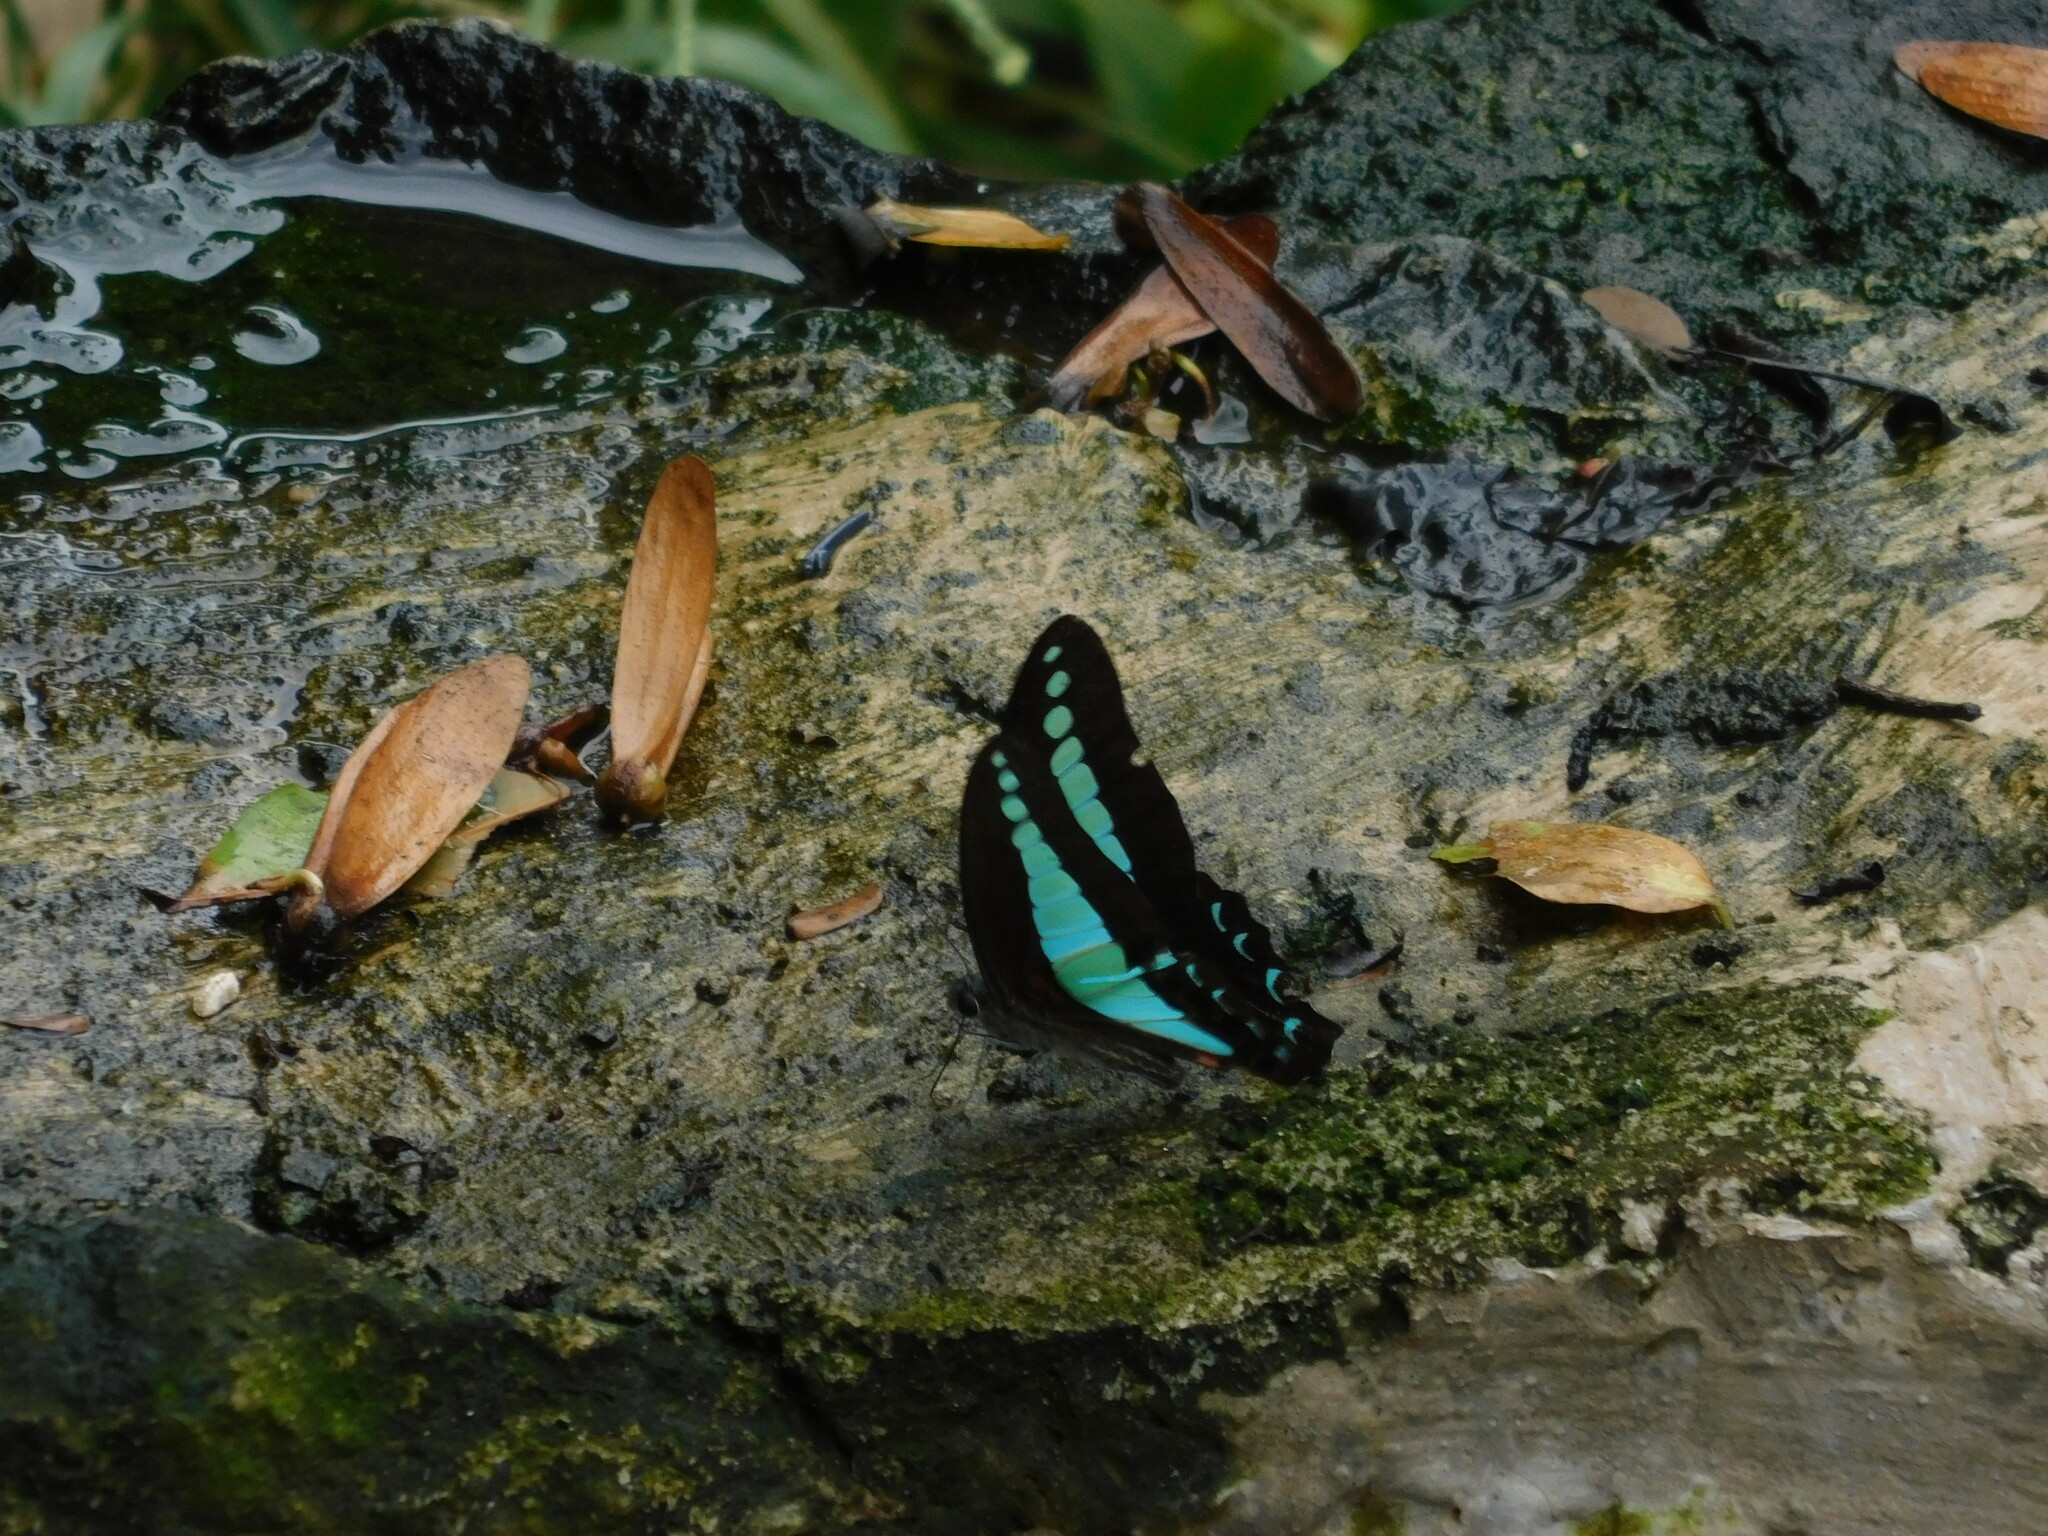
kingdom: Fungi
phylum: Ascomycota
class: Sordariomycetes
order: Microascales
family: Microascaceae
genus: Graphium
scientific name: Graphium sarpedon
